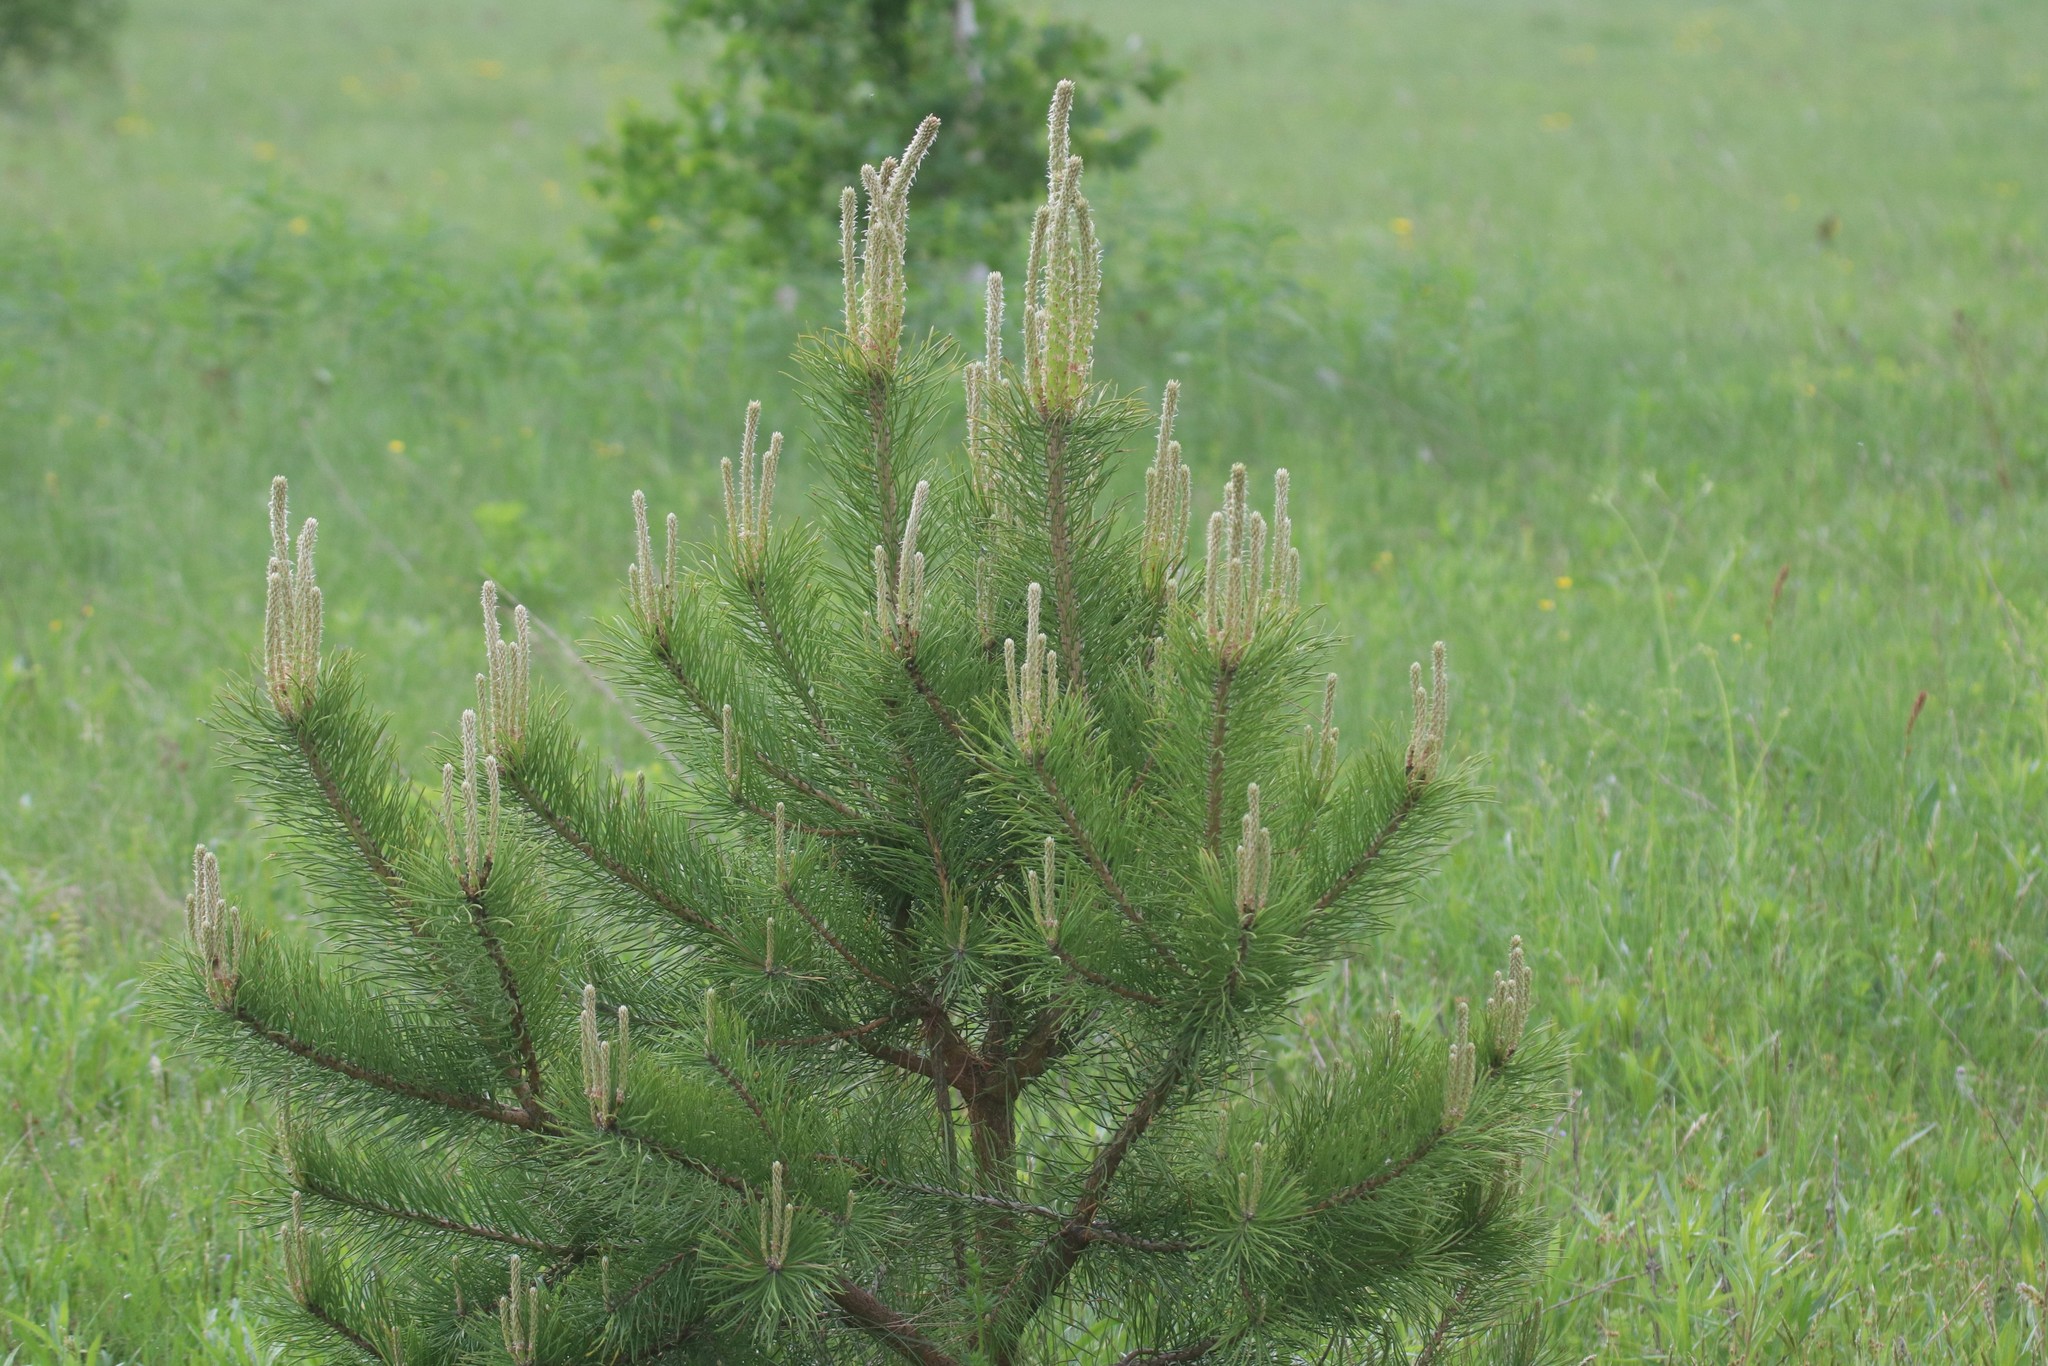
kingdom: Plantae
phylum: Tracheophyta
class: Pinopsida
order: Pinales
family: Pinaceae
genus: Pinus
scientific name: Pinus sylvestris
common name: Scots pine
